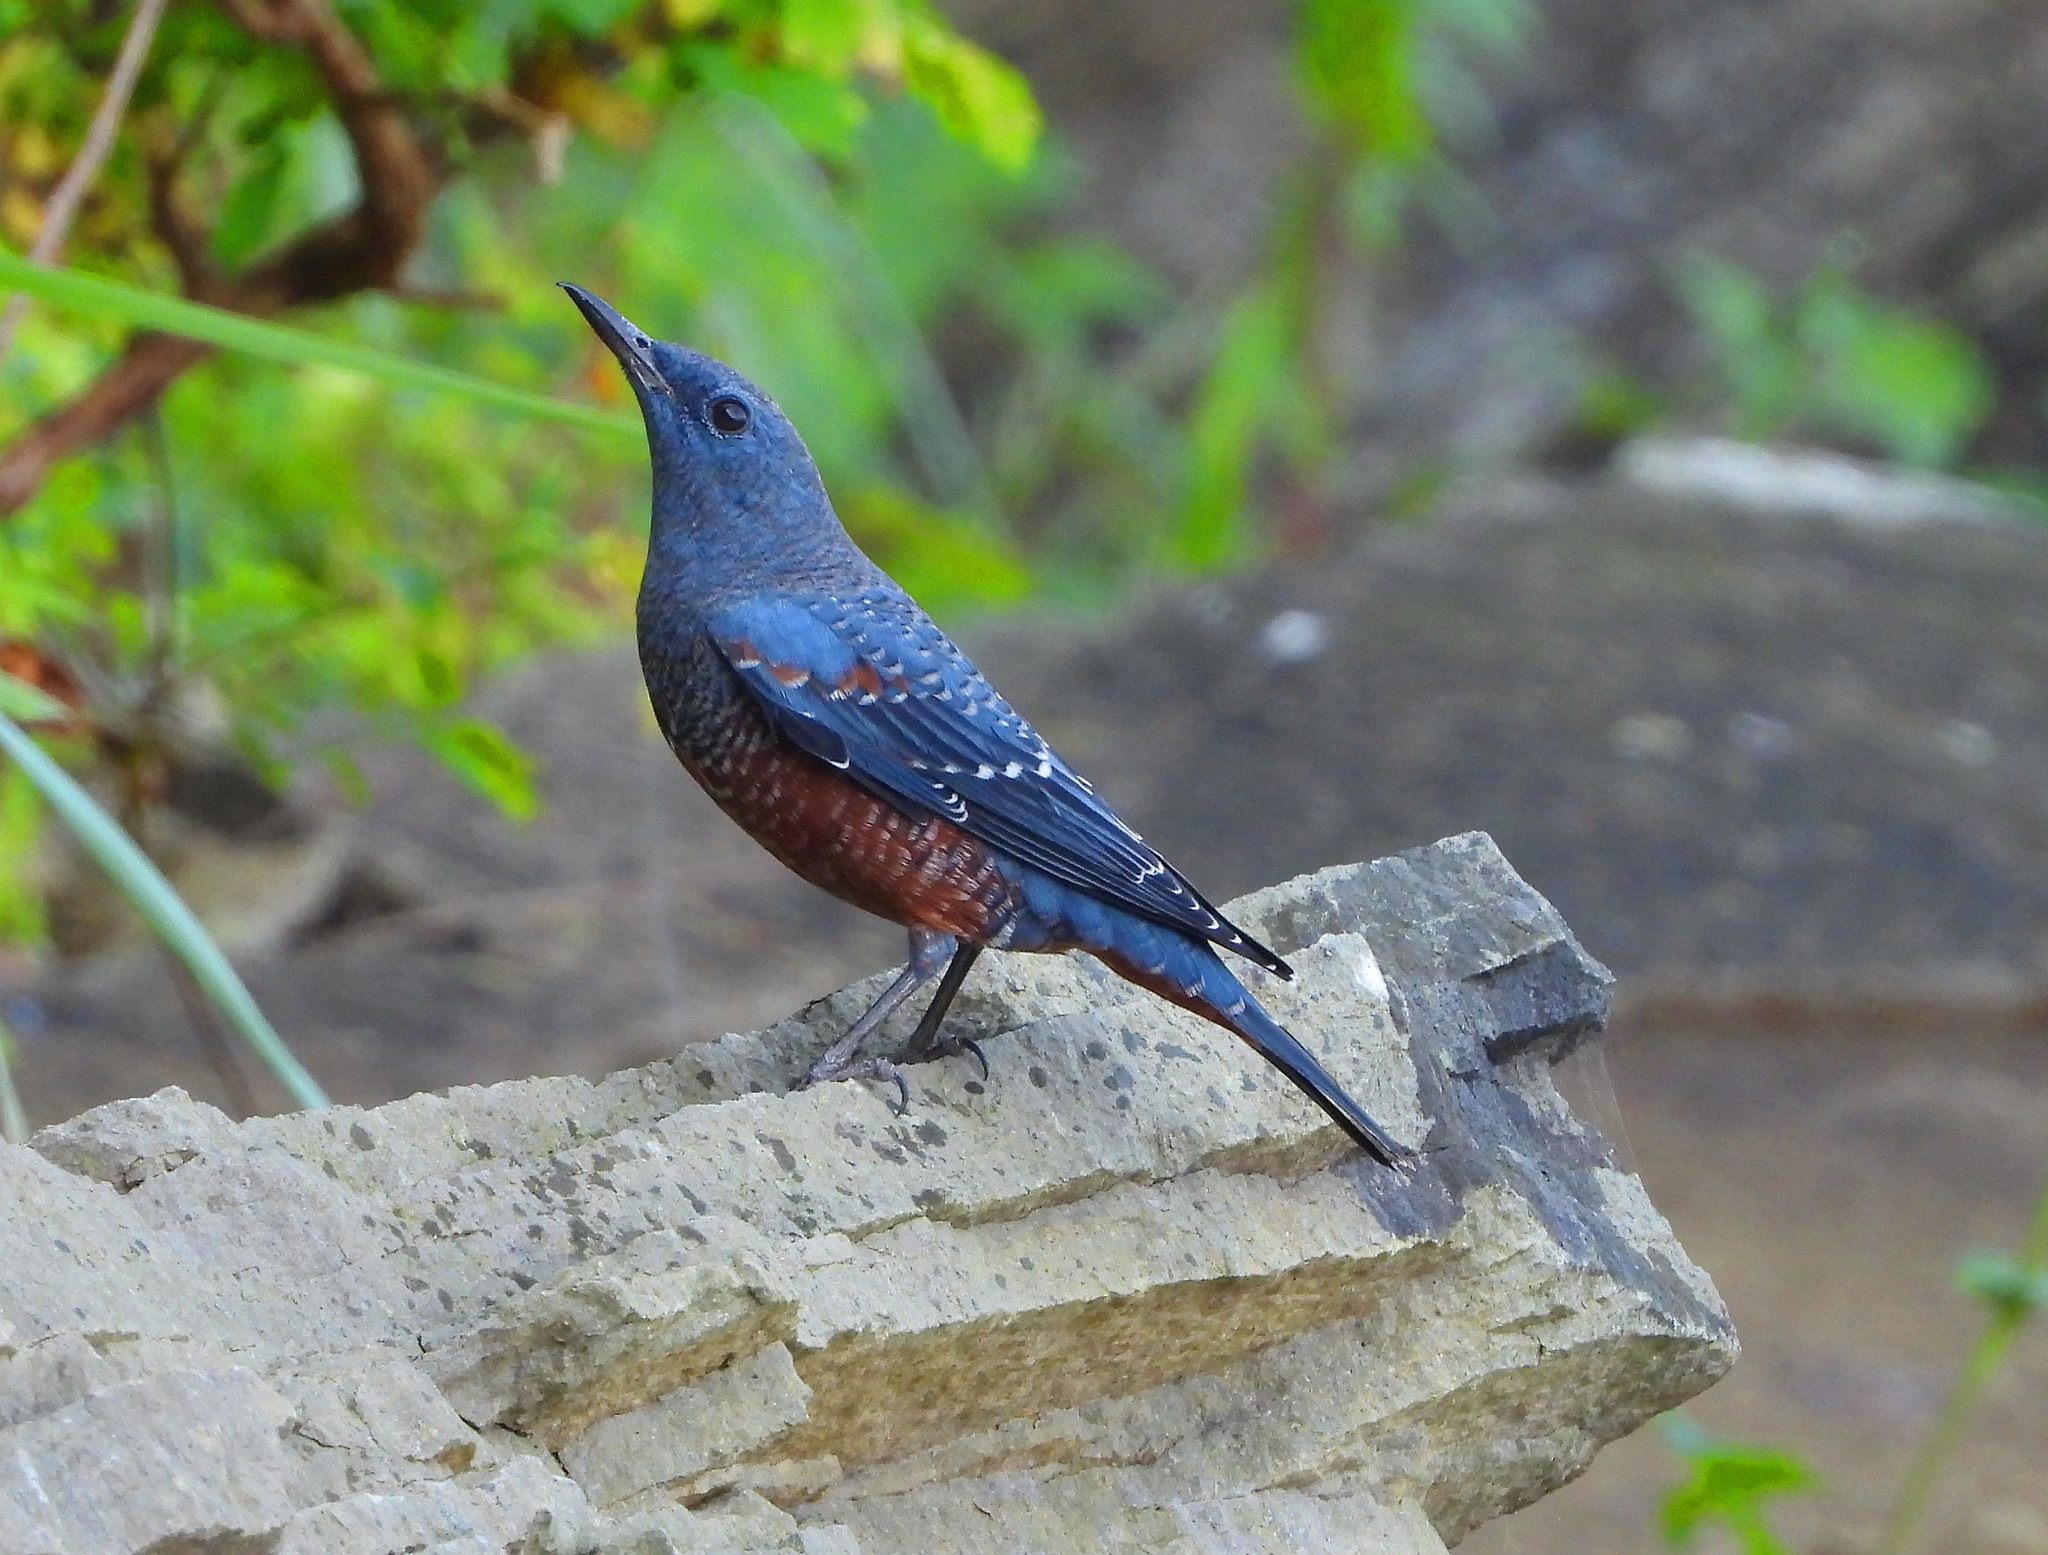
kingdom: Animalia
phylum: Chordata
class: Aves
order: Passeriformes
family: Muscicapidae
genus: Monticola
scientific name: Monticola solitarius
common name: Blue rock thrush
